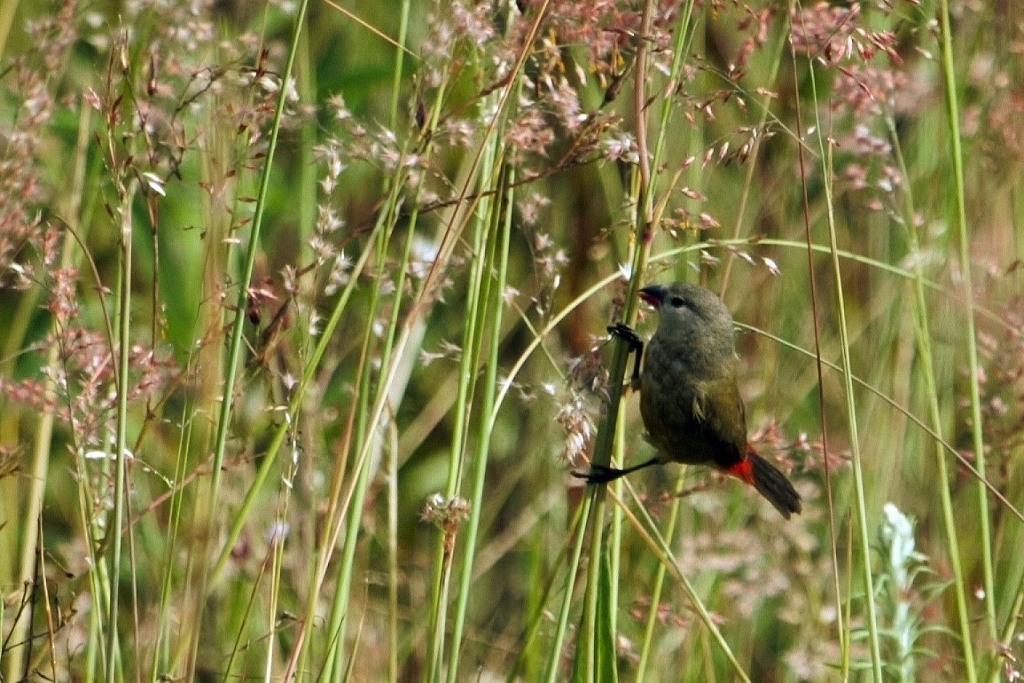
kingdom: Animalia
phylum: Chordata
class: Aves
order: Passeriformes
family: Estrildidae
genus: Coccopygia
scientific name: Coccopygia quartinia
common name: Yellow-bellied waxbill
